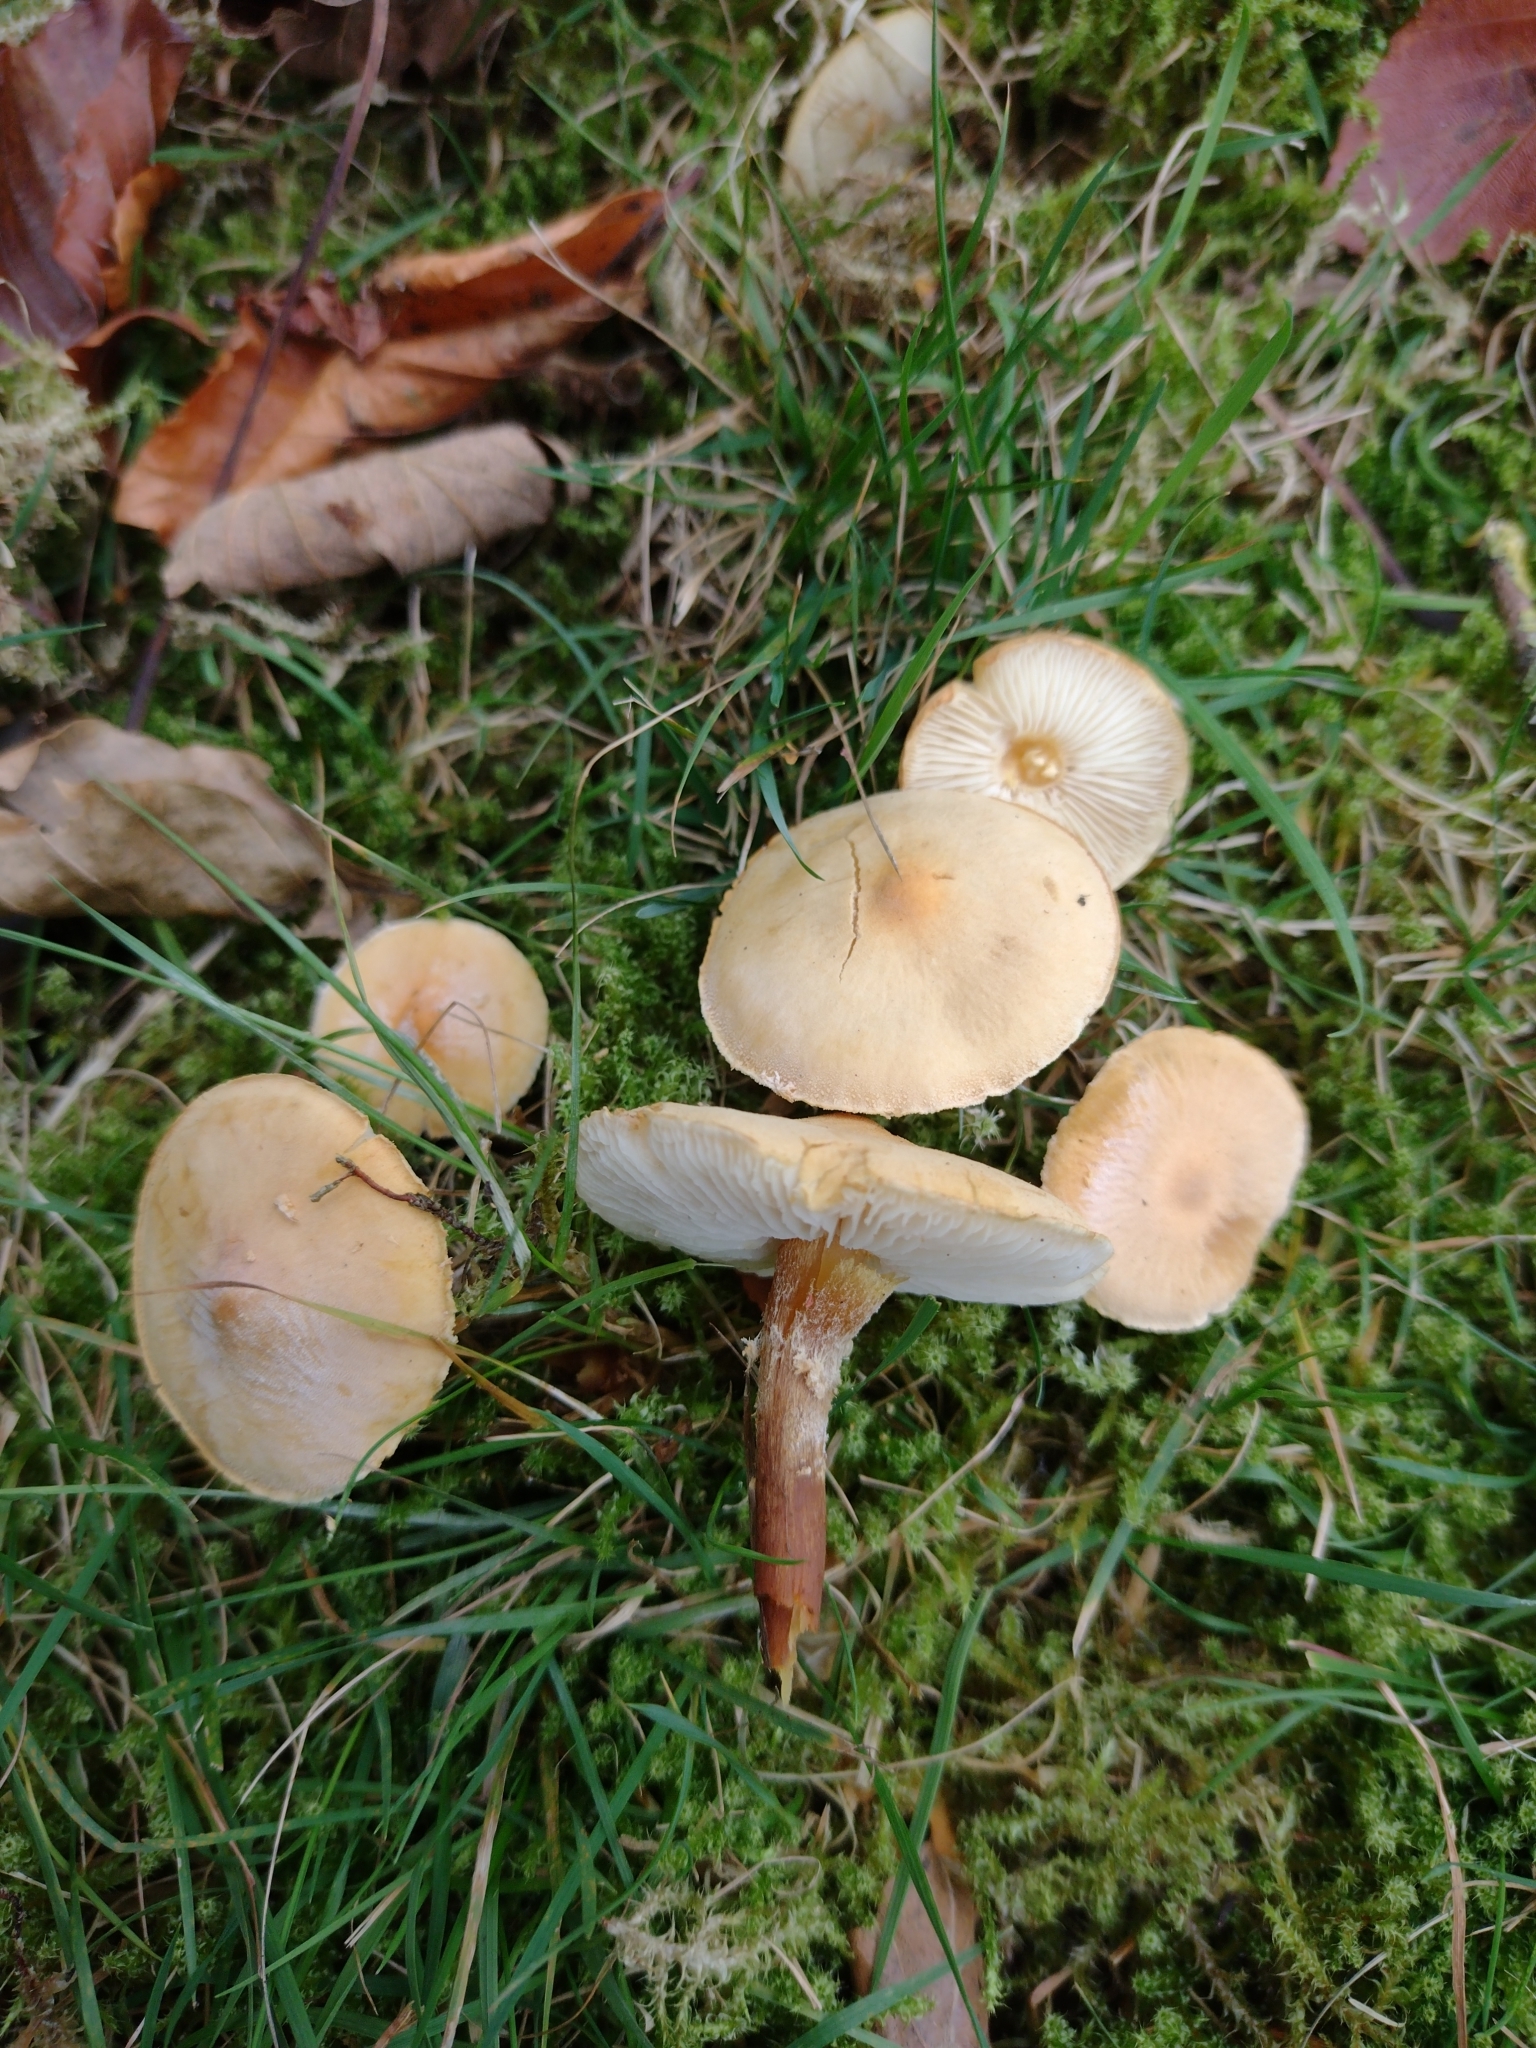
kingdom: Fungi
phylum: Basidiomycota
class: Agaricomycetes
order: Agaricales
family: Tricholomataceae
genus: Cystoderma
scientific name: Cystoderma amianthinum
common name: Earthy powdercap
